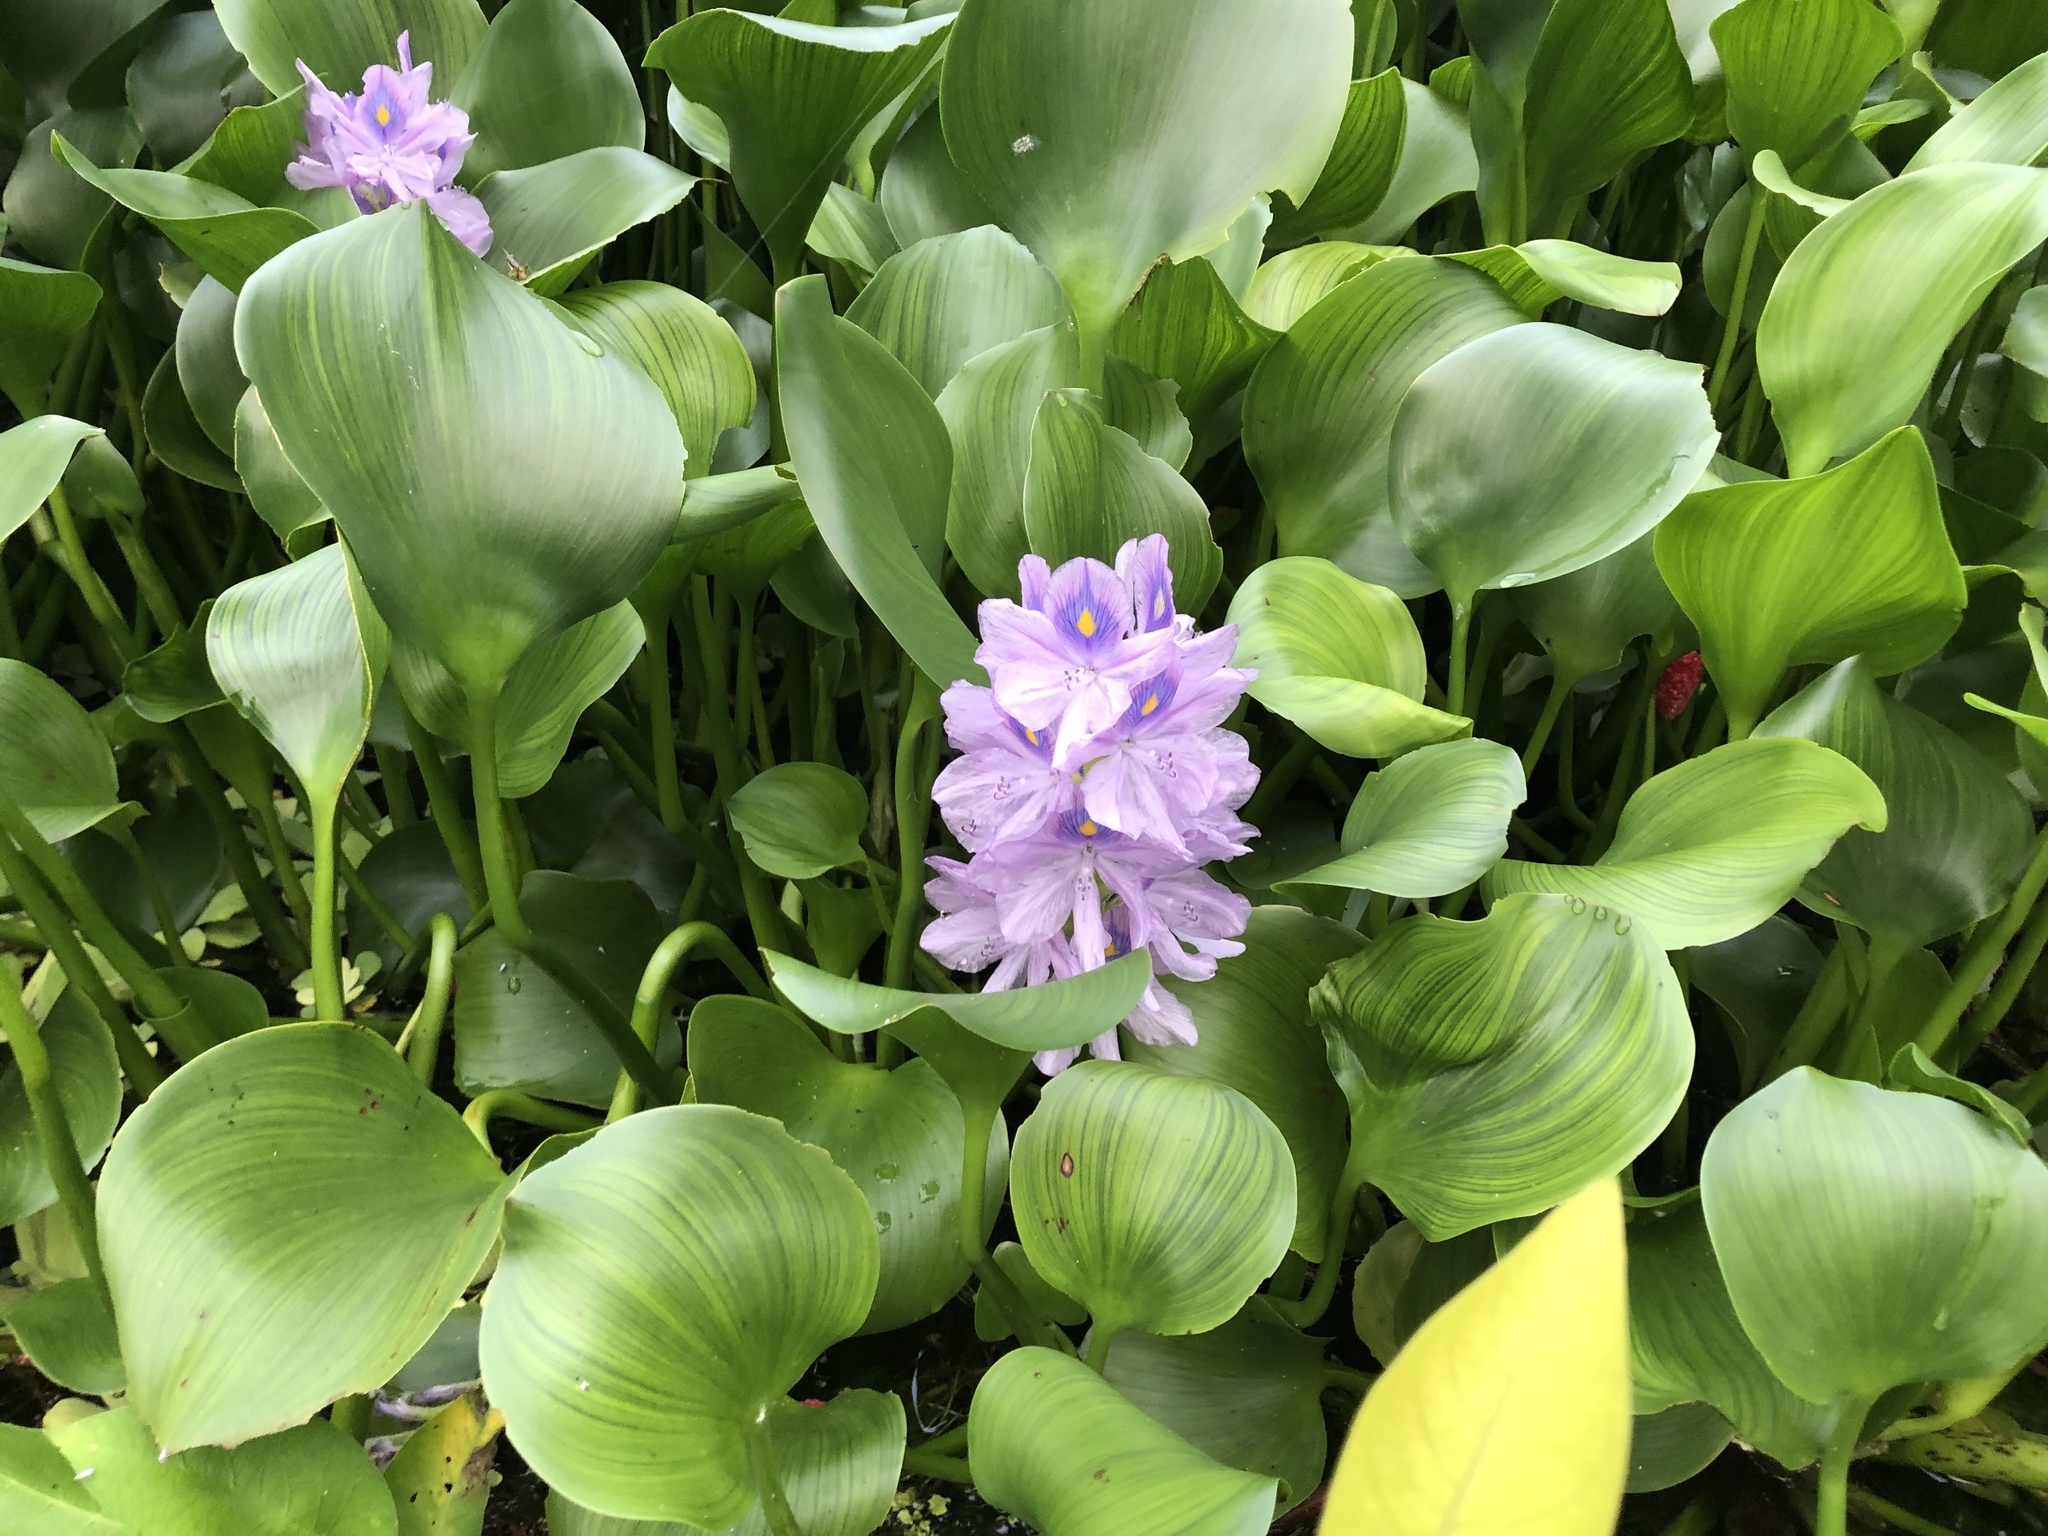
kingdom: Plantae
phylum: Tracheophyta
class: Liliopsida
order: Commelinales
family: Pontederiaceae
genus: Pontederia
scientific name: Pontederia crassipes
